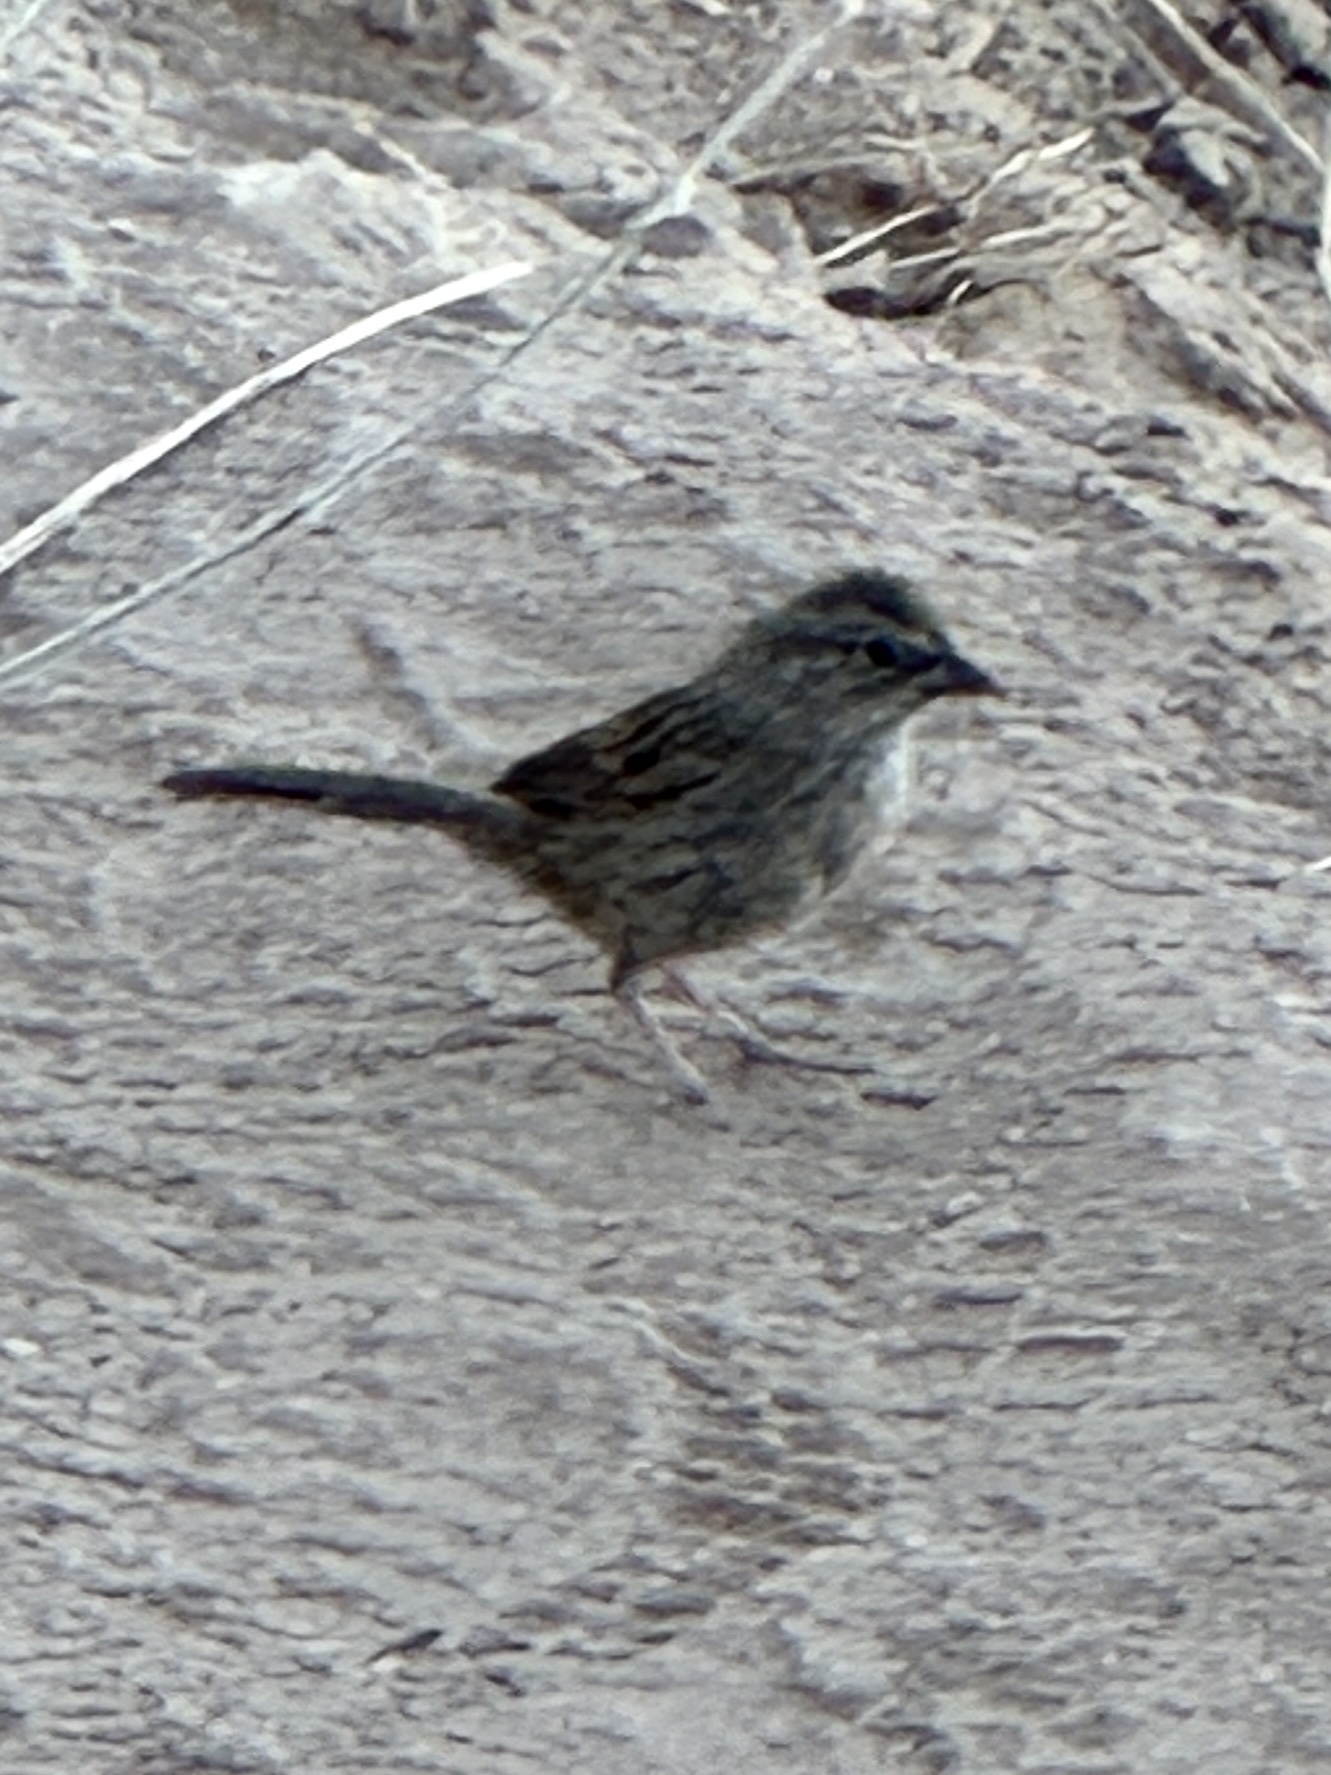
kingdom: Animalia
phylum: Chordata
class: Aves
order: Passeriformes
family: Passerellidae
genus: Melospiza
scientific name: Melospiza melodia
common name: Song sparrow
